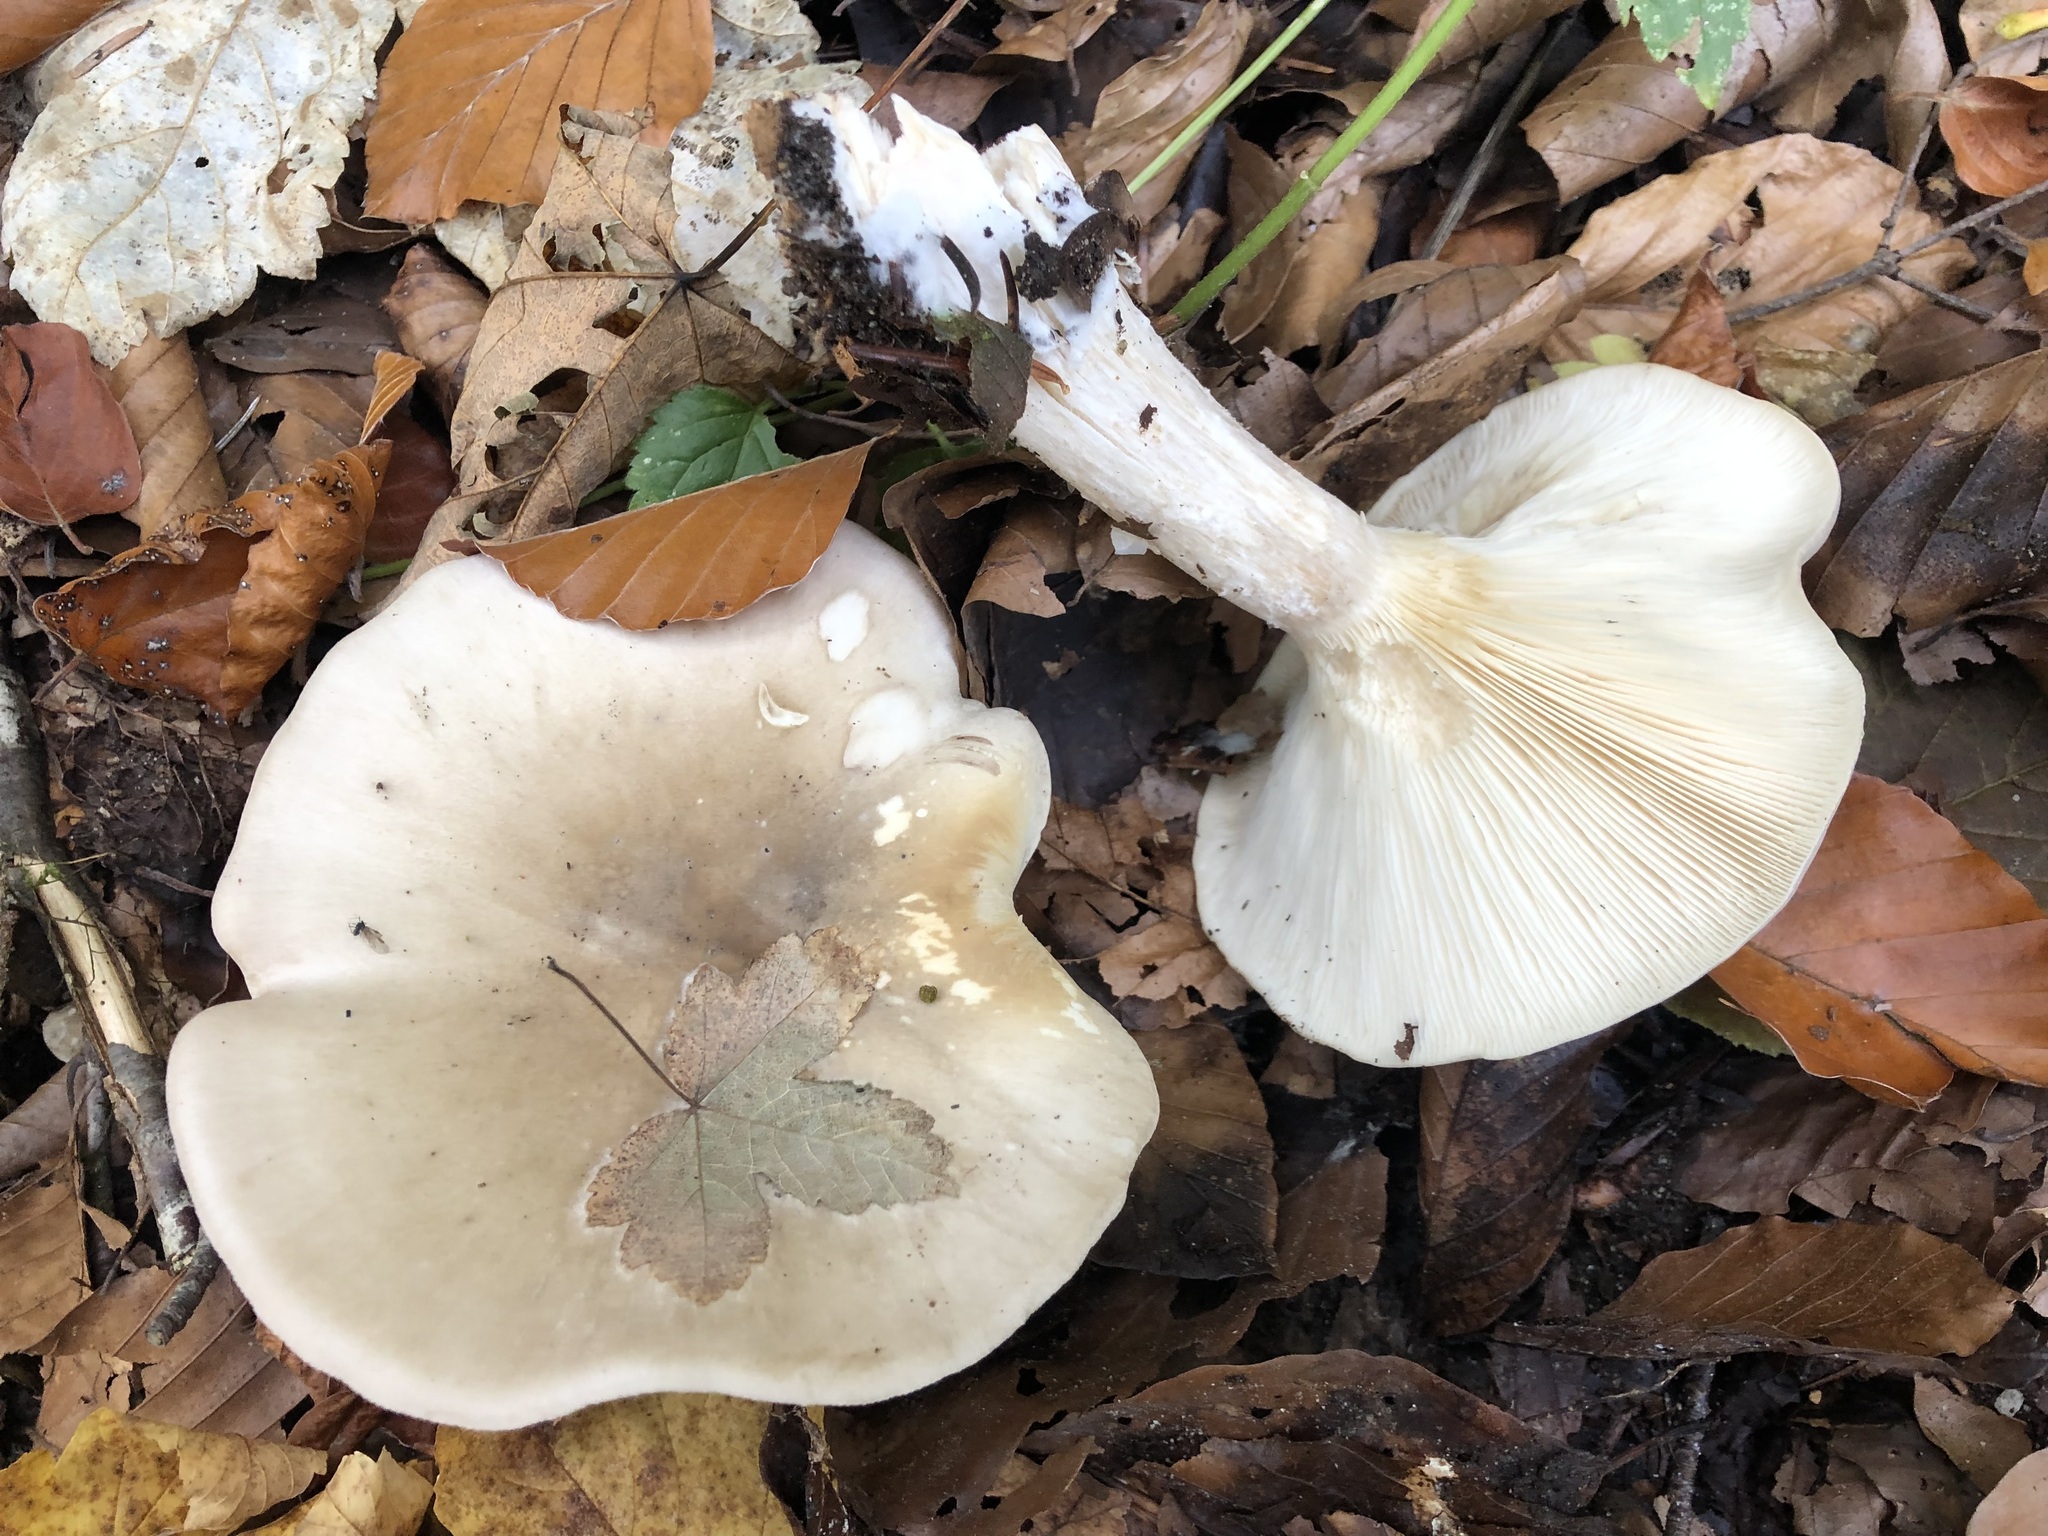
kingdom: Fungi
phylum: Basidiomycota
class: Agaricomycetes
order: Agaricales
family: Tricholomataceae
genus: Clitocybe
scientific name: Clitocybe nebularis
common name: Clouded agaric
